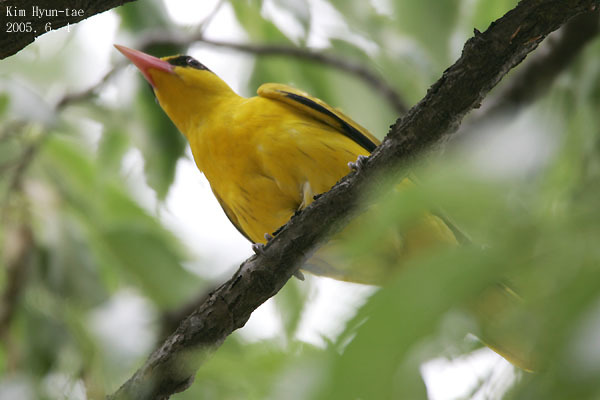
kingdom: Animalia
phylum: Chordata
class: Aves
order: Passeriformes
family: Oriolidae
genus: Oriolus
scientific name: Oriolus chinensis
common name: Black-naped oriole
